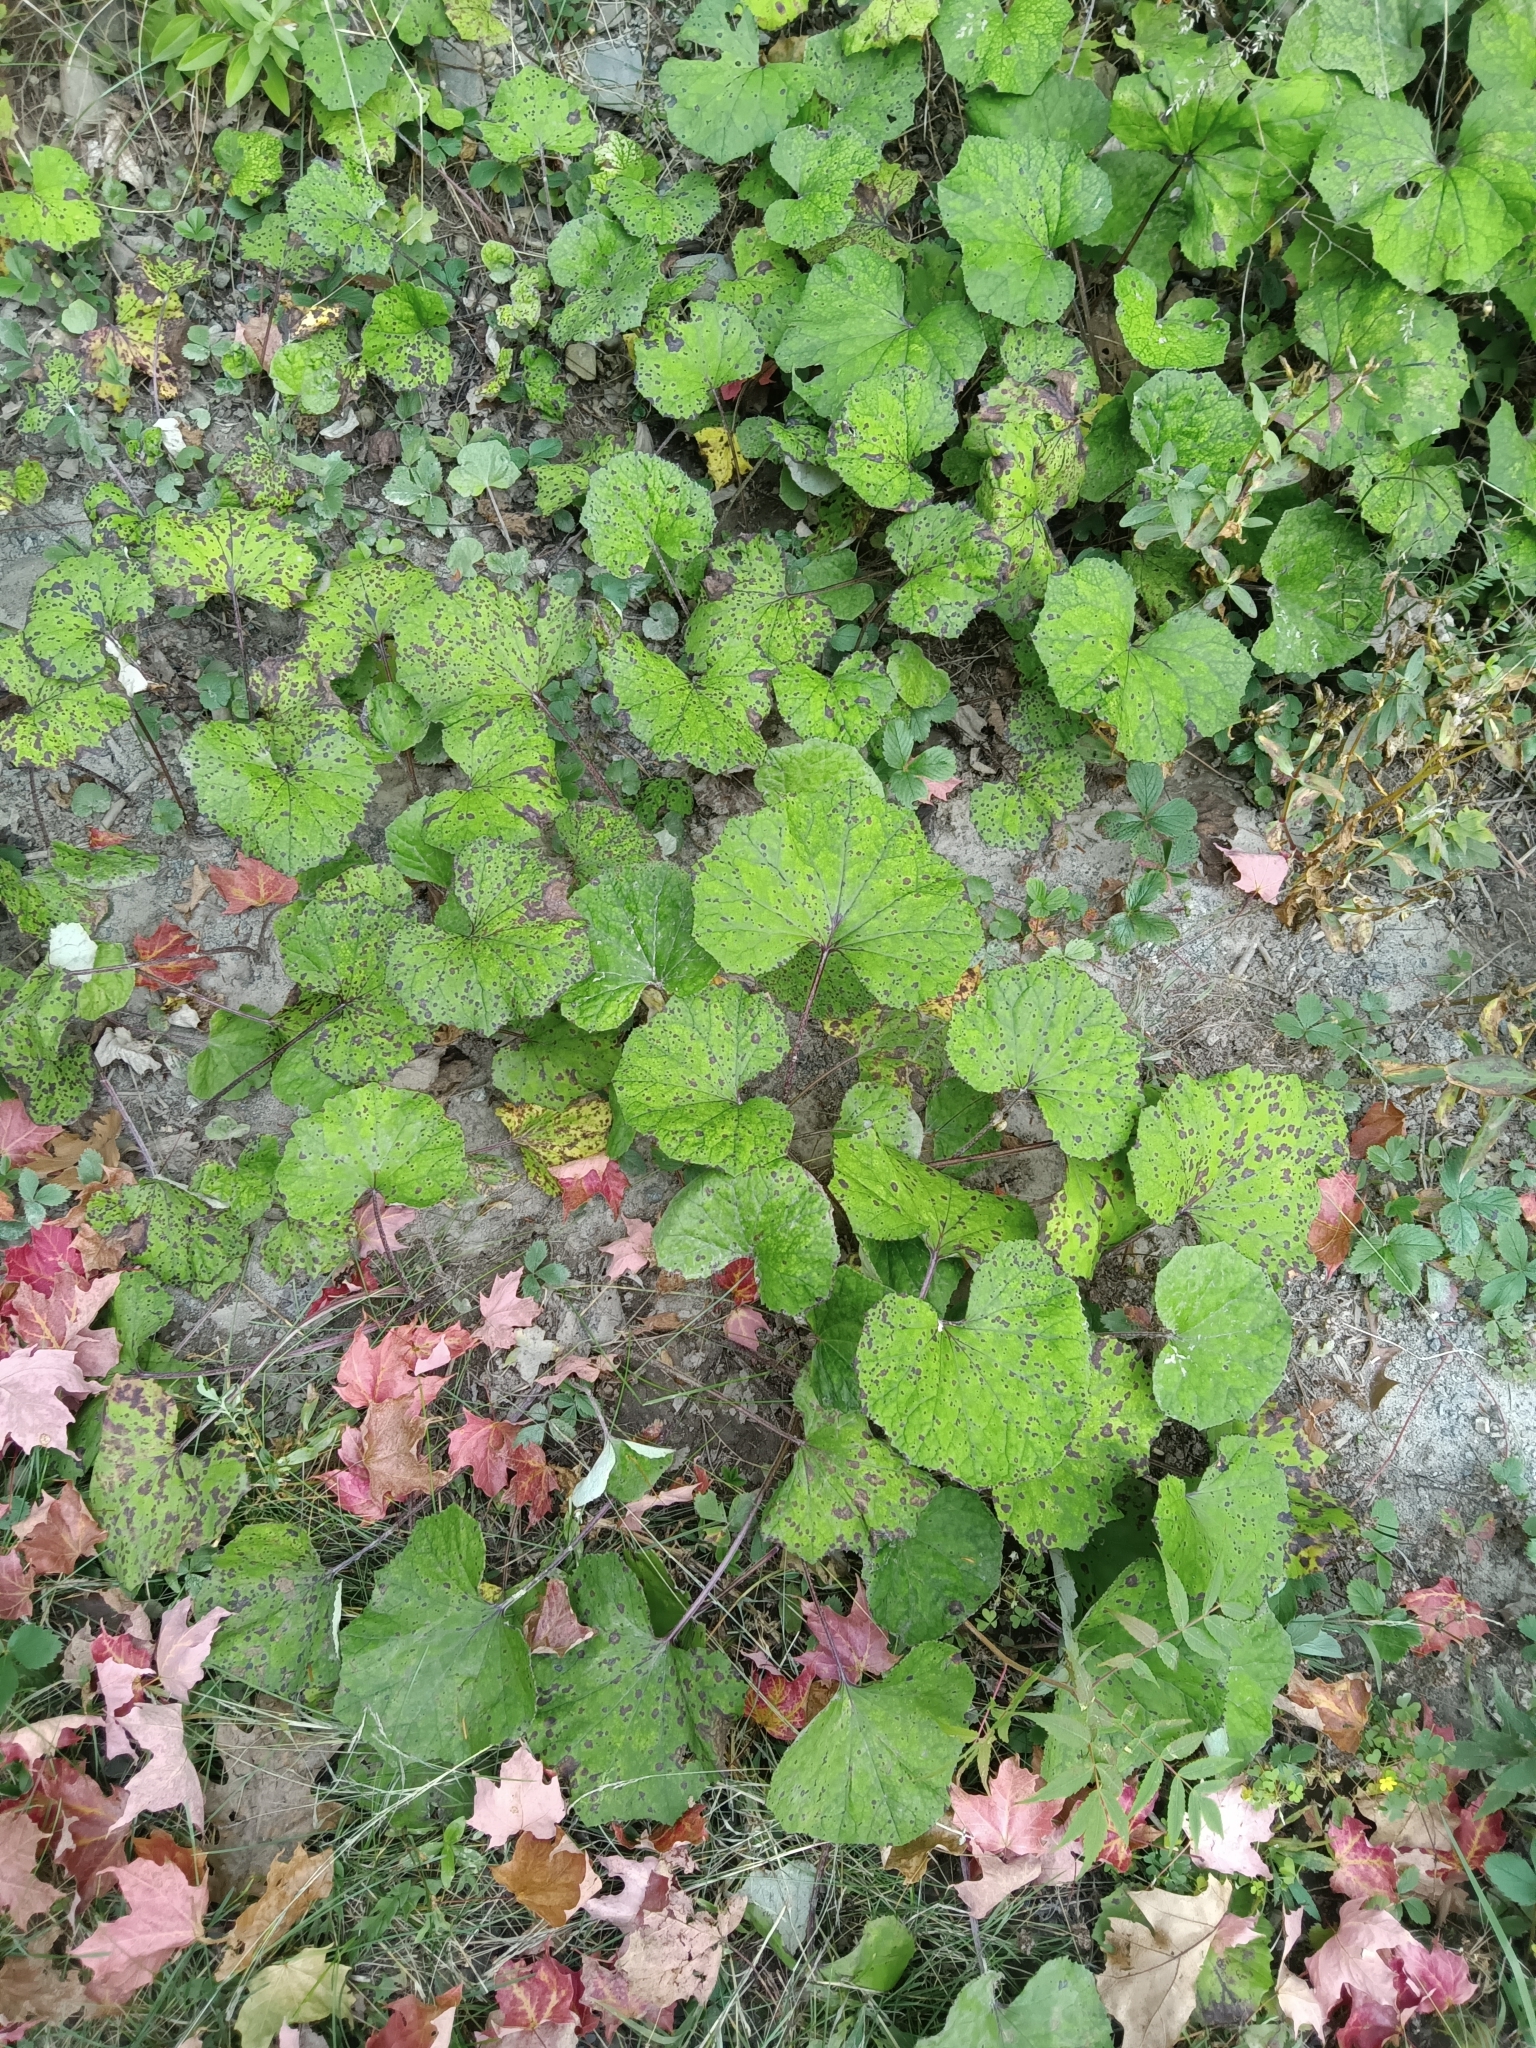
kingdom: Plantae
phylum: Tracheophyta
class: Magnoliopsida
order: Asterales
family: Asteraceae
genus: Tussilago
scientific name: Tussilago farfara
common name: Coltsfoot
